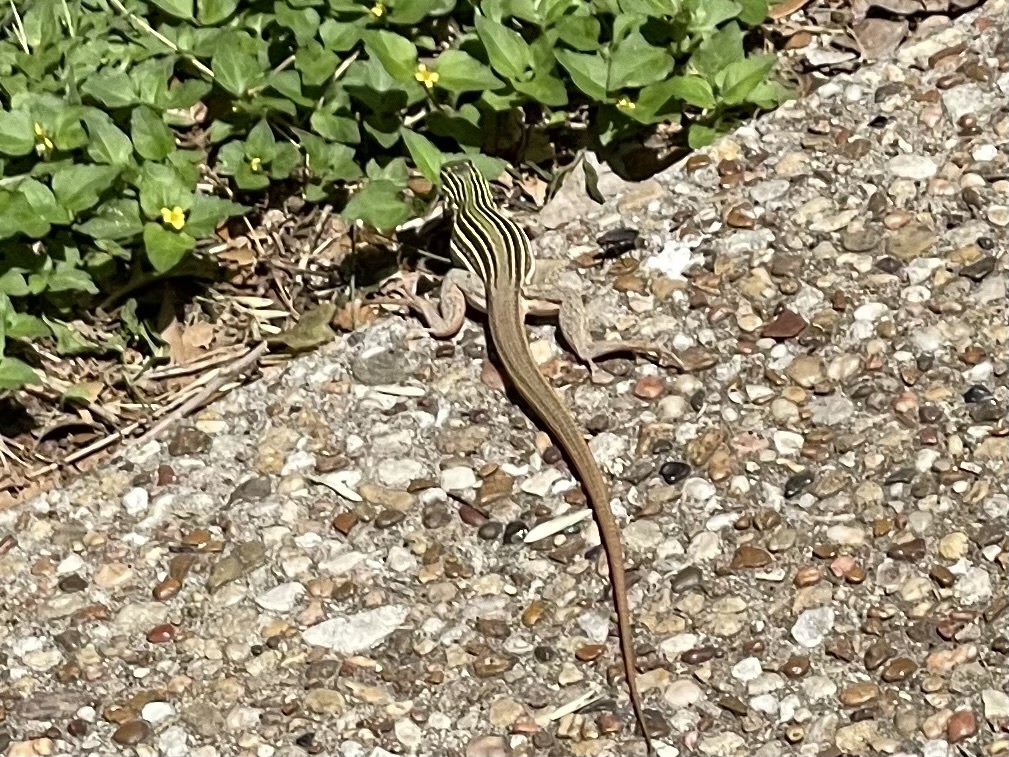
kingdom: Animalia
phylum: Chordata
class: Squamata
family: Teiidae
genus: Aspidoscelis
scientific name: Aspidoscelis gularis
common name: Eastern spotted whiptail
